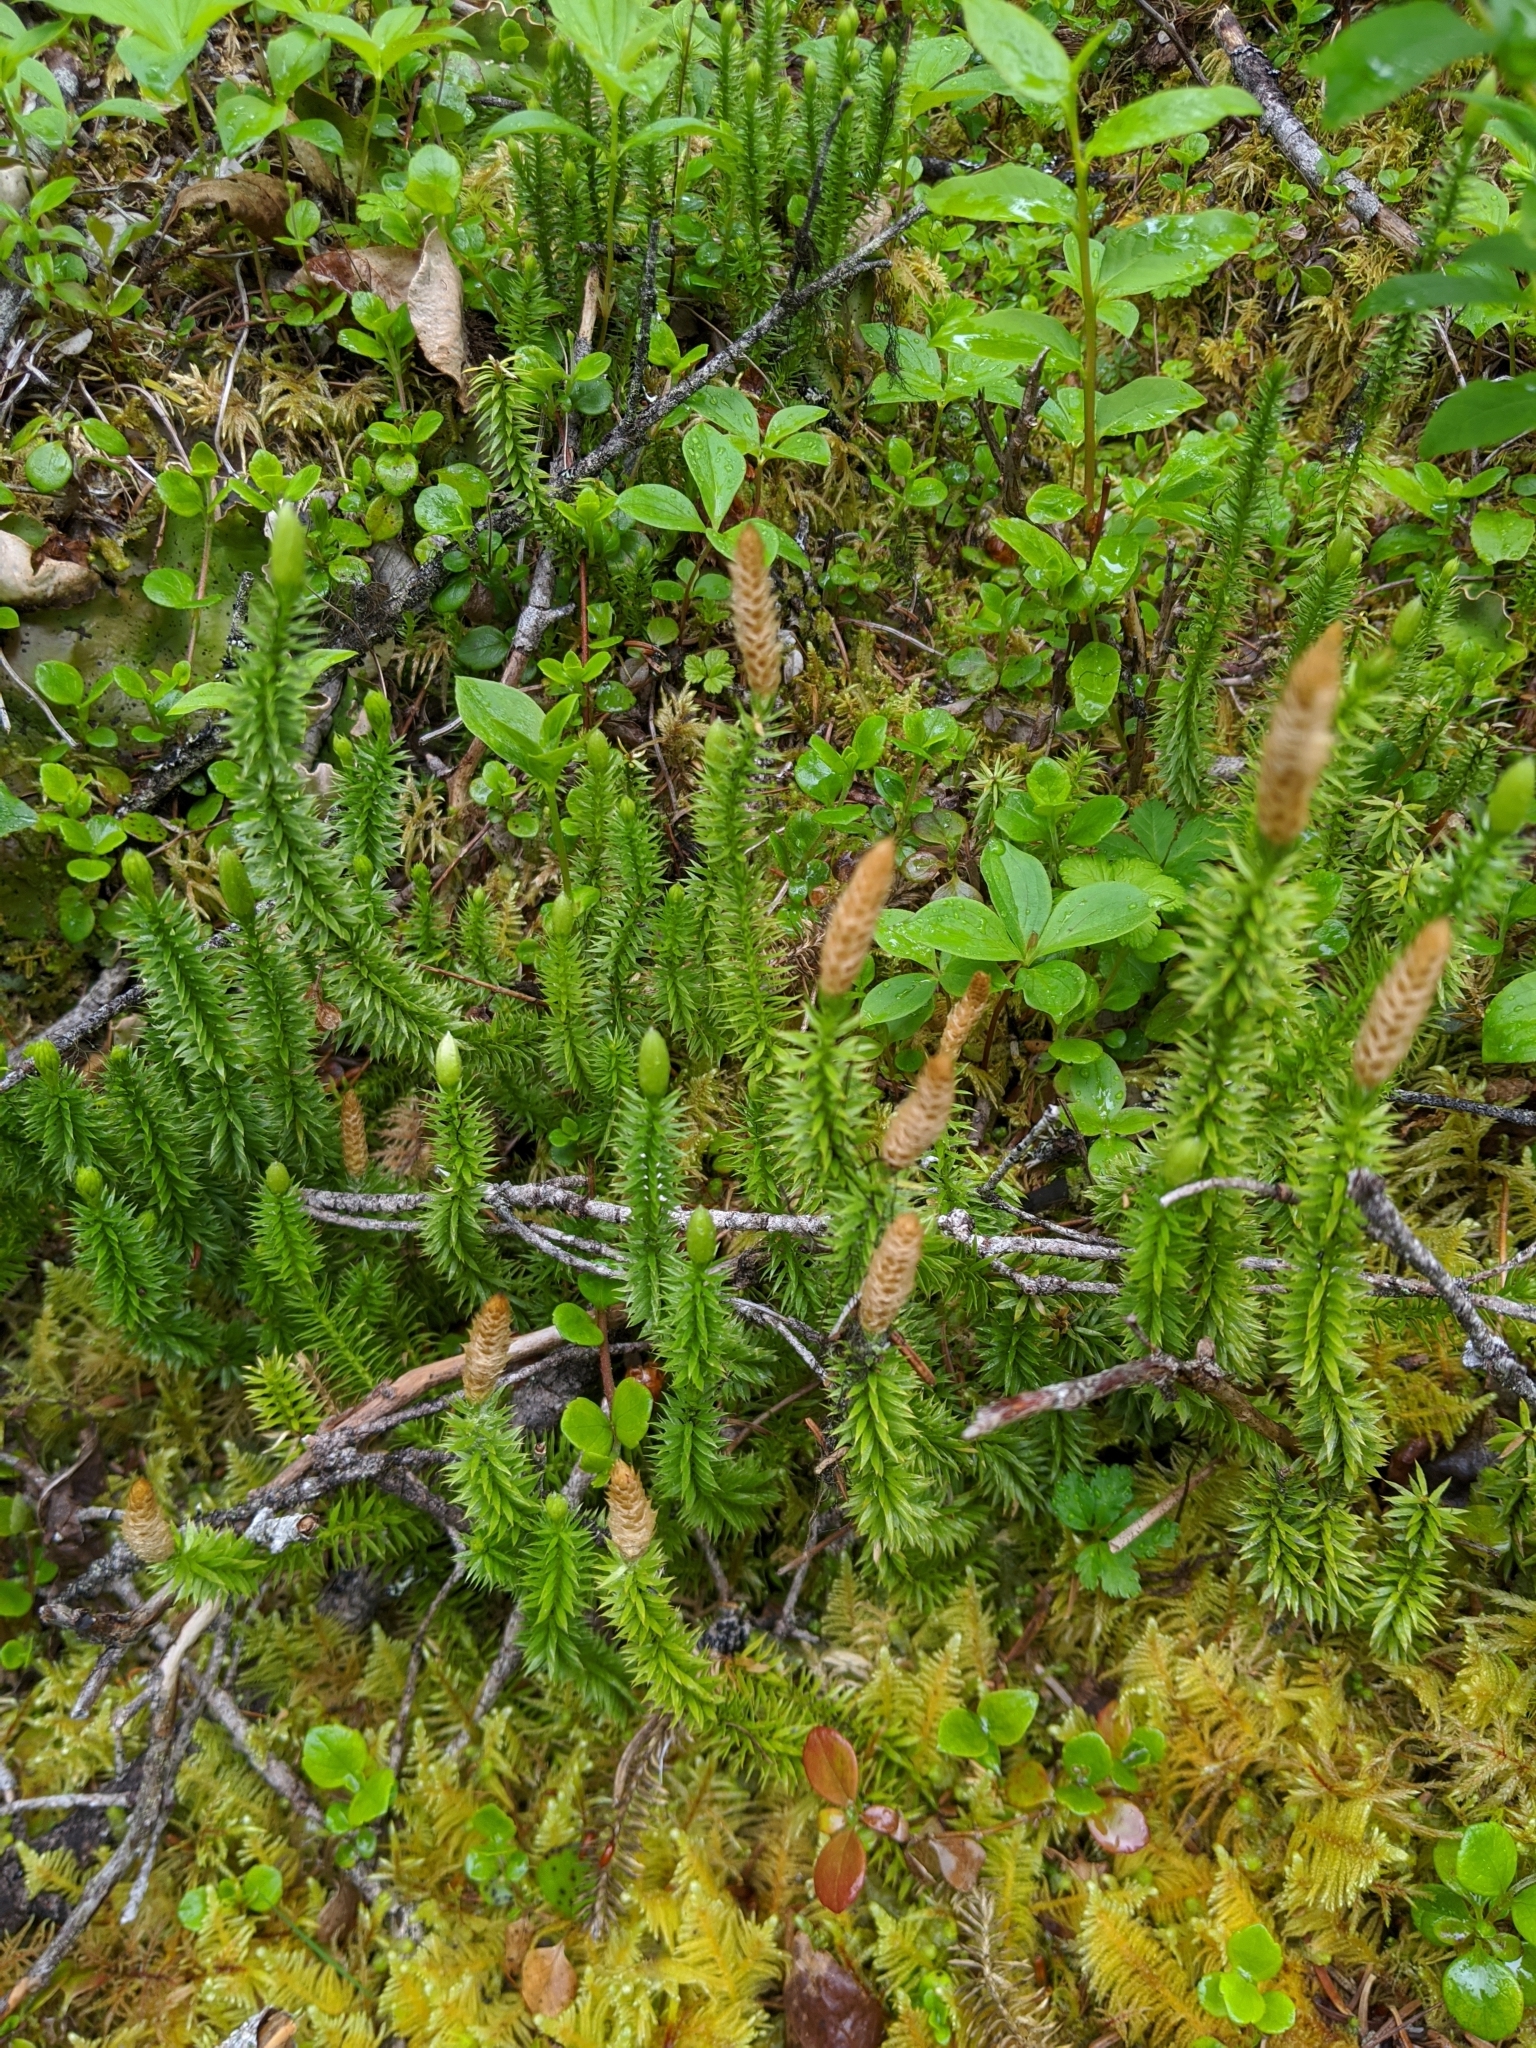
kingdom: Plantae
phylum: Tracheophyta
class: Lycopodiopsida
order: Lycopodiales
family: Lycopodiaceae
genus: Spinulum
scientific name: Spinulum annotinum
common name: Interrupted club-moss
